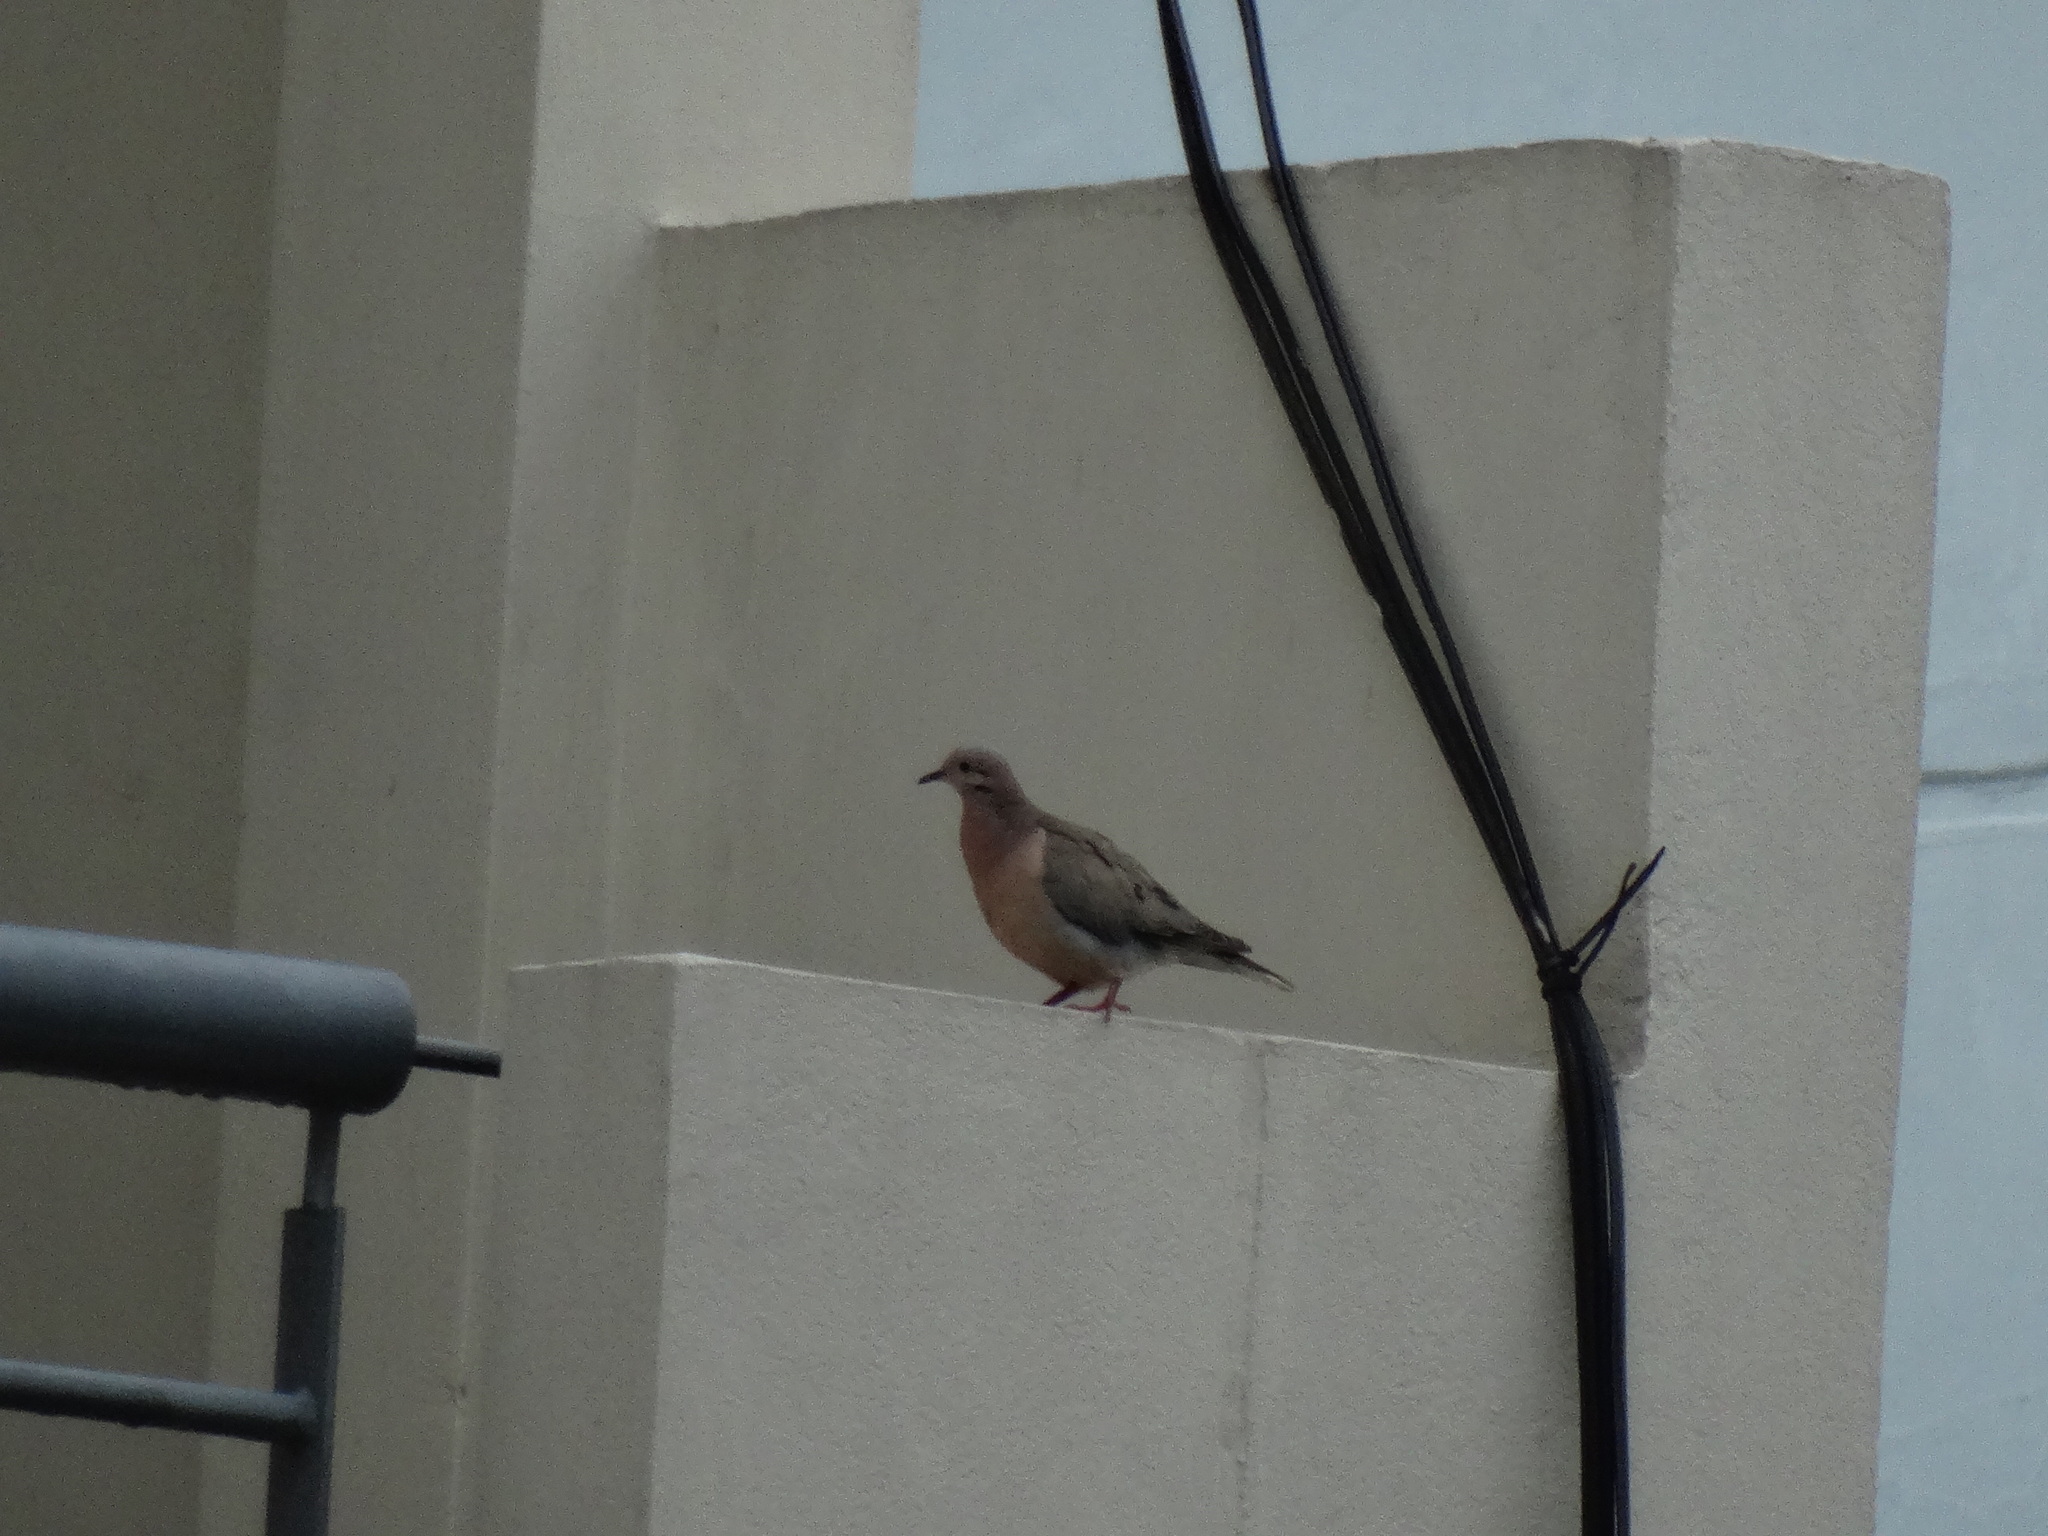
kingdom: Animalia
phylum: Chordata
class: Aves
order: Columbiformes
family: Columbidae
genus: Zenaida
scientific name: Zenaida auriculata
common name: Eared dove
